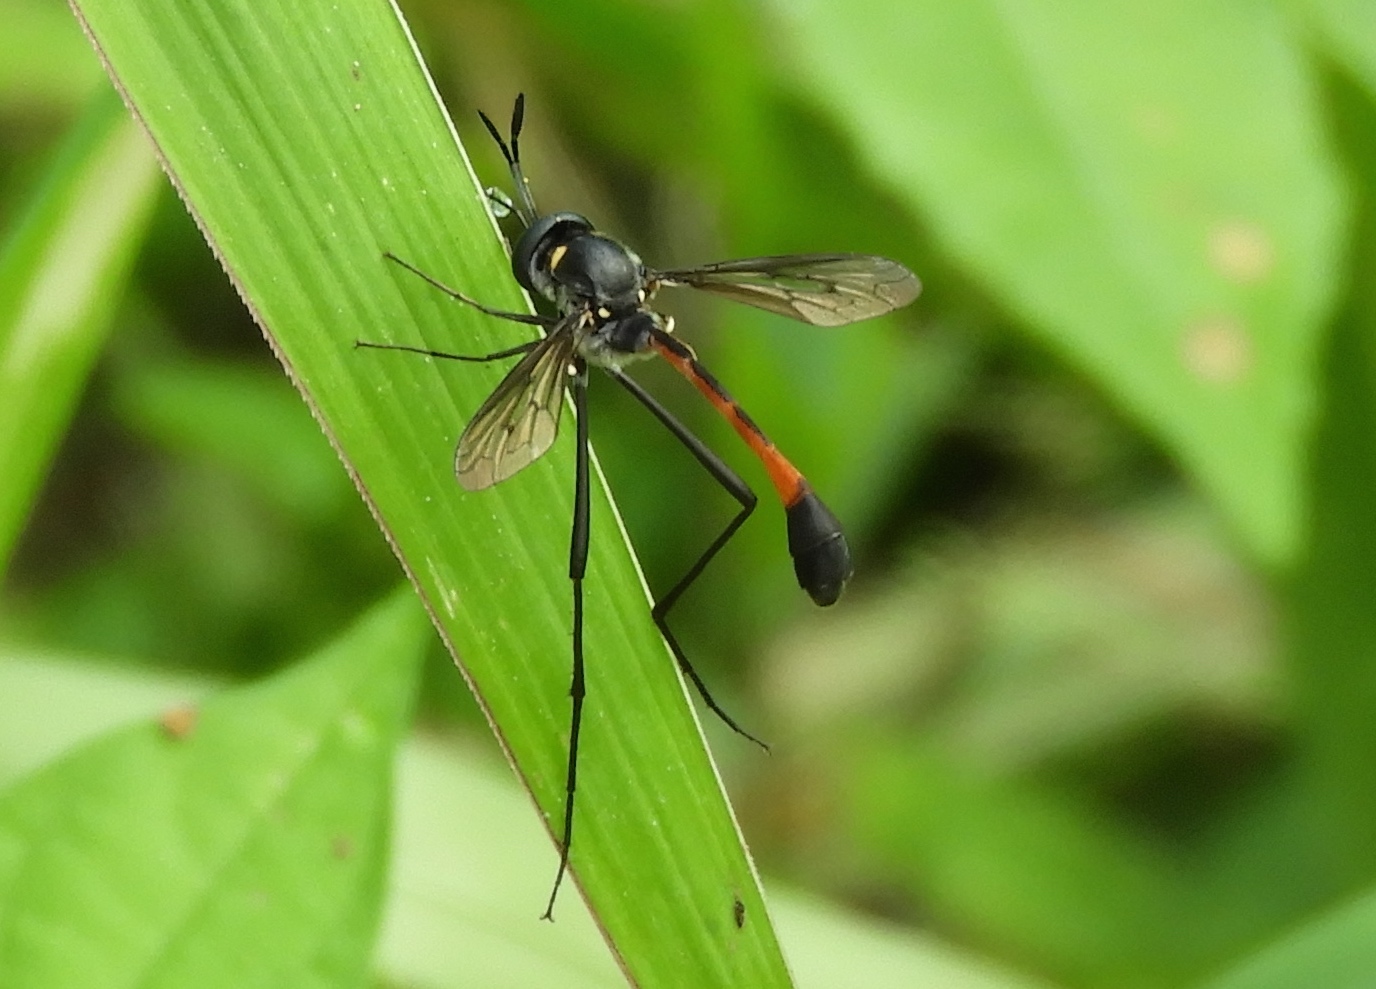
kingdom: Animalia
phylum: Arthropoda
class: Insecta
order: Diptera
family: Bombyliidae
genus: Systropus
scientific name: Systropus
